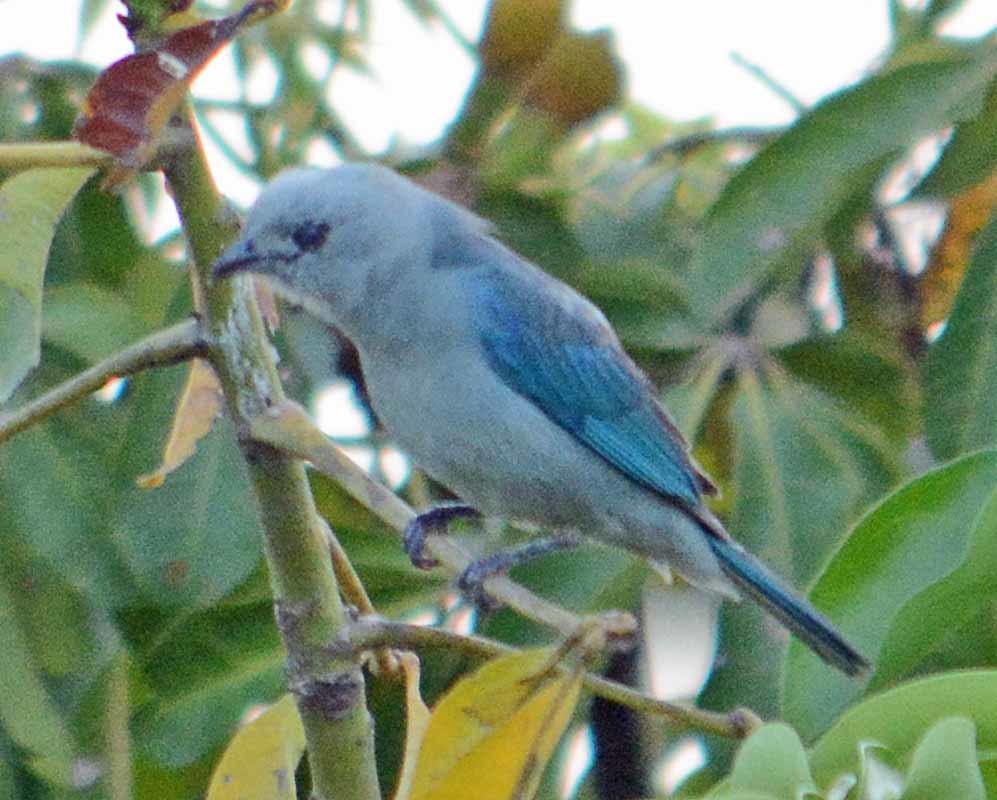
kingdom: Animalia
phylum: Chordata
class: Aves
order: Passeriformes
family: Thraupidae
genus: Thraupis
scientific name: Thraupis episcopus
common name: Blue-grey tanager
